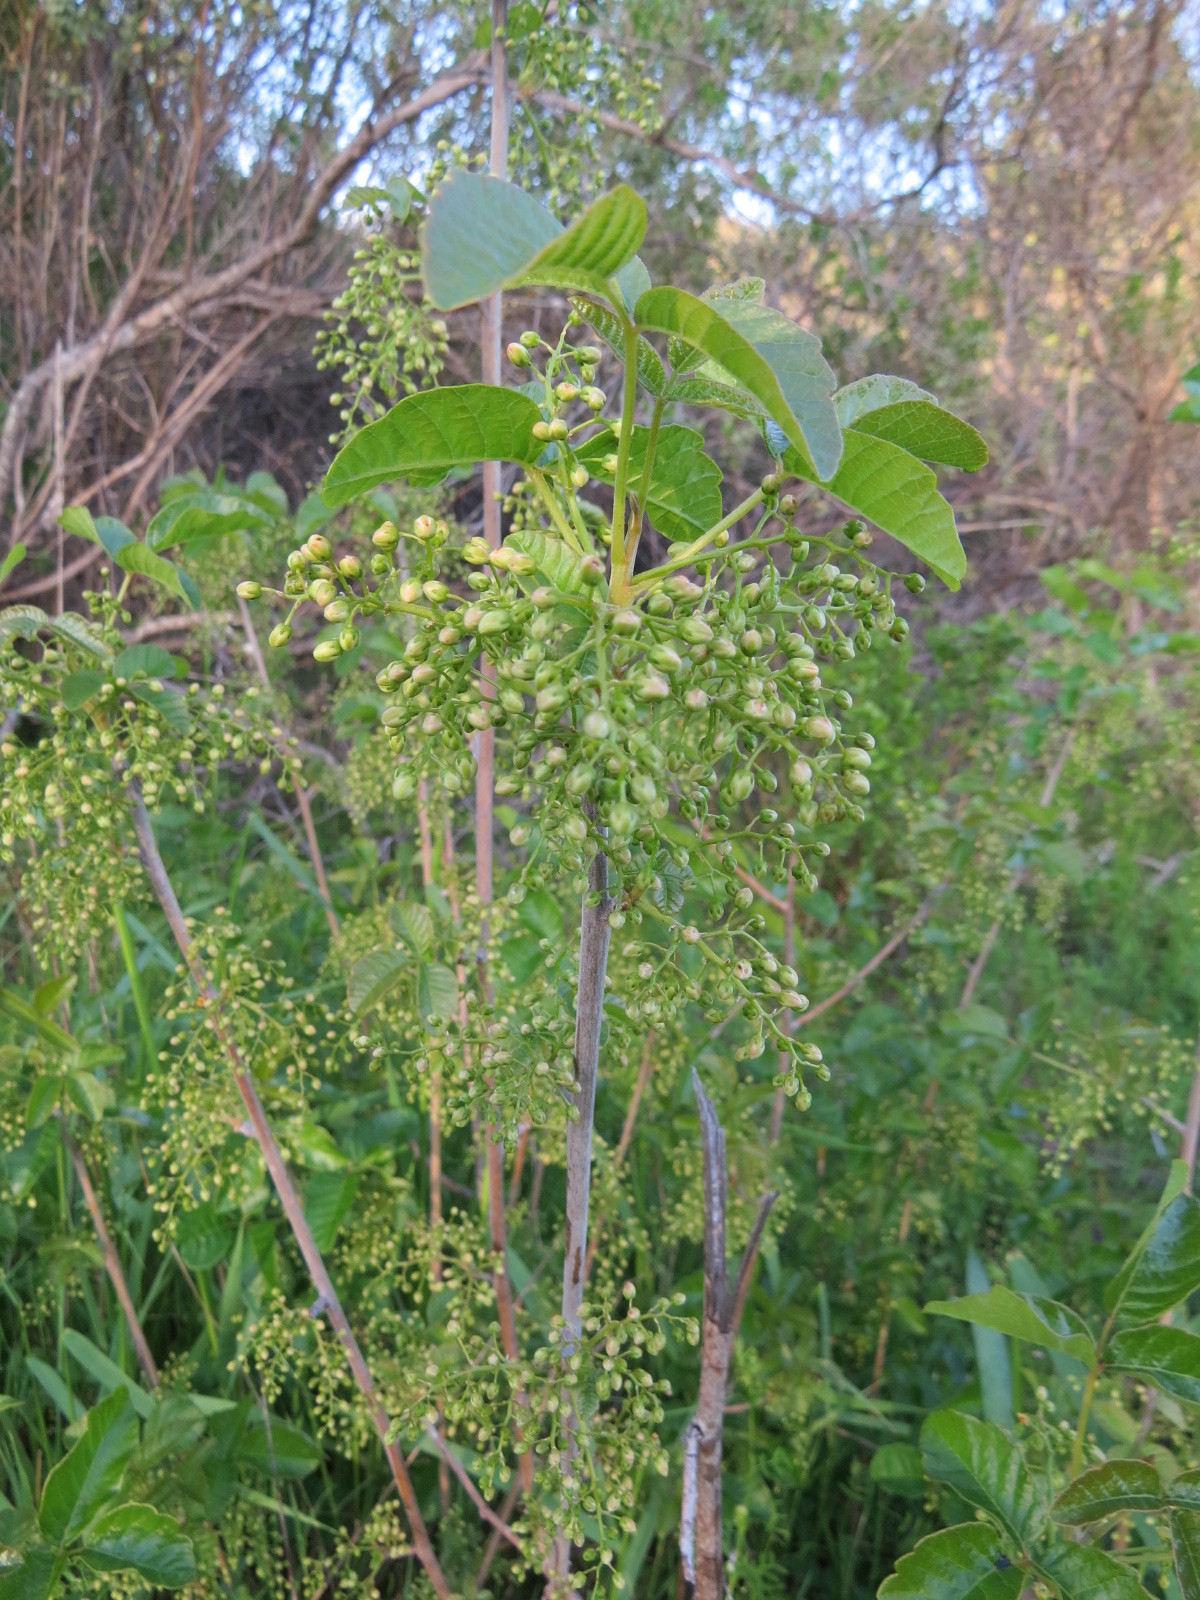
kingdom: Plantae
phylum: Tracheophyta
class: Magnoliopsida
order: Sapindales
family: Anacardiaceae
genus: Toxicodendron
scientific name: Toxicodendron diversilobum
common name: Pacific poison-oak
